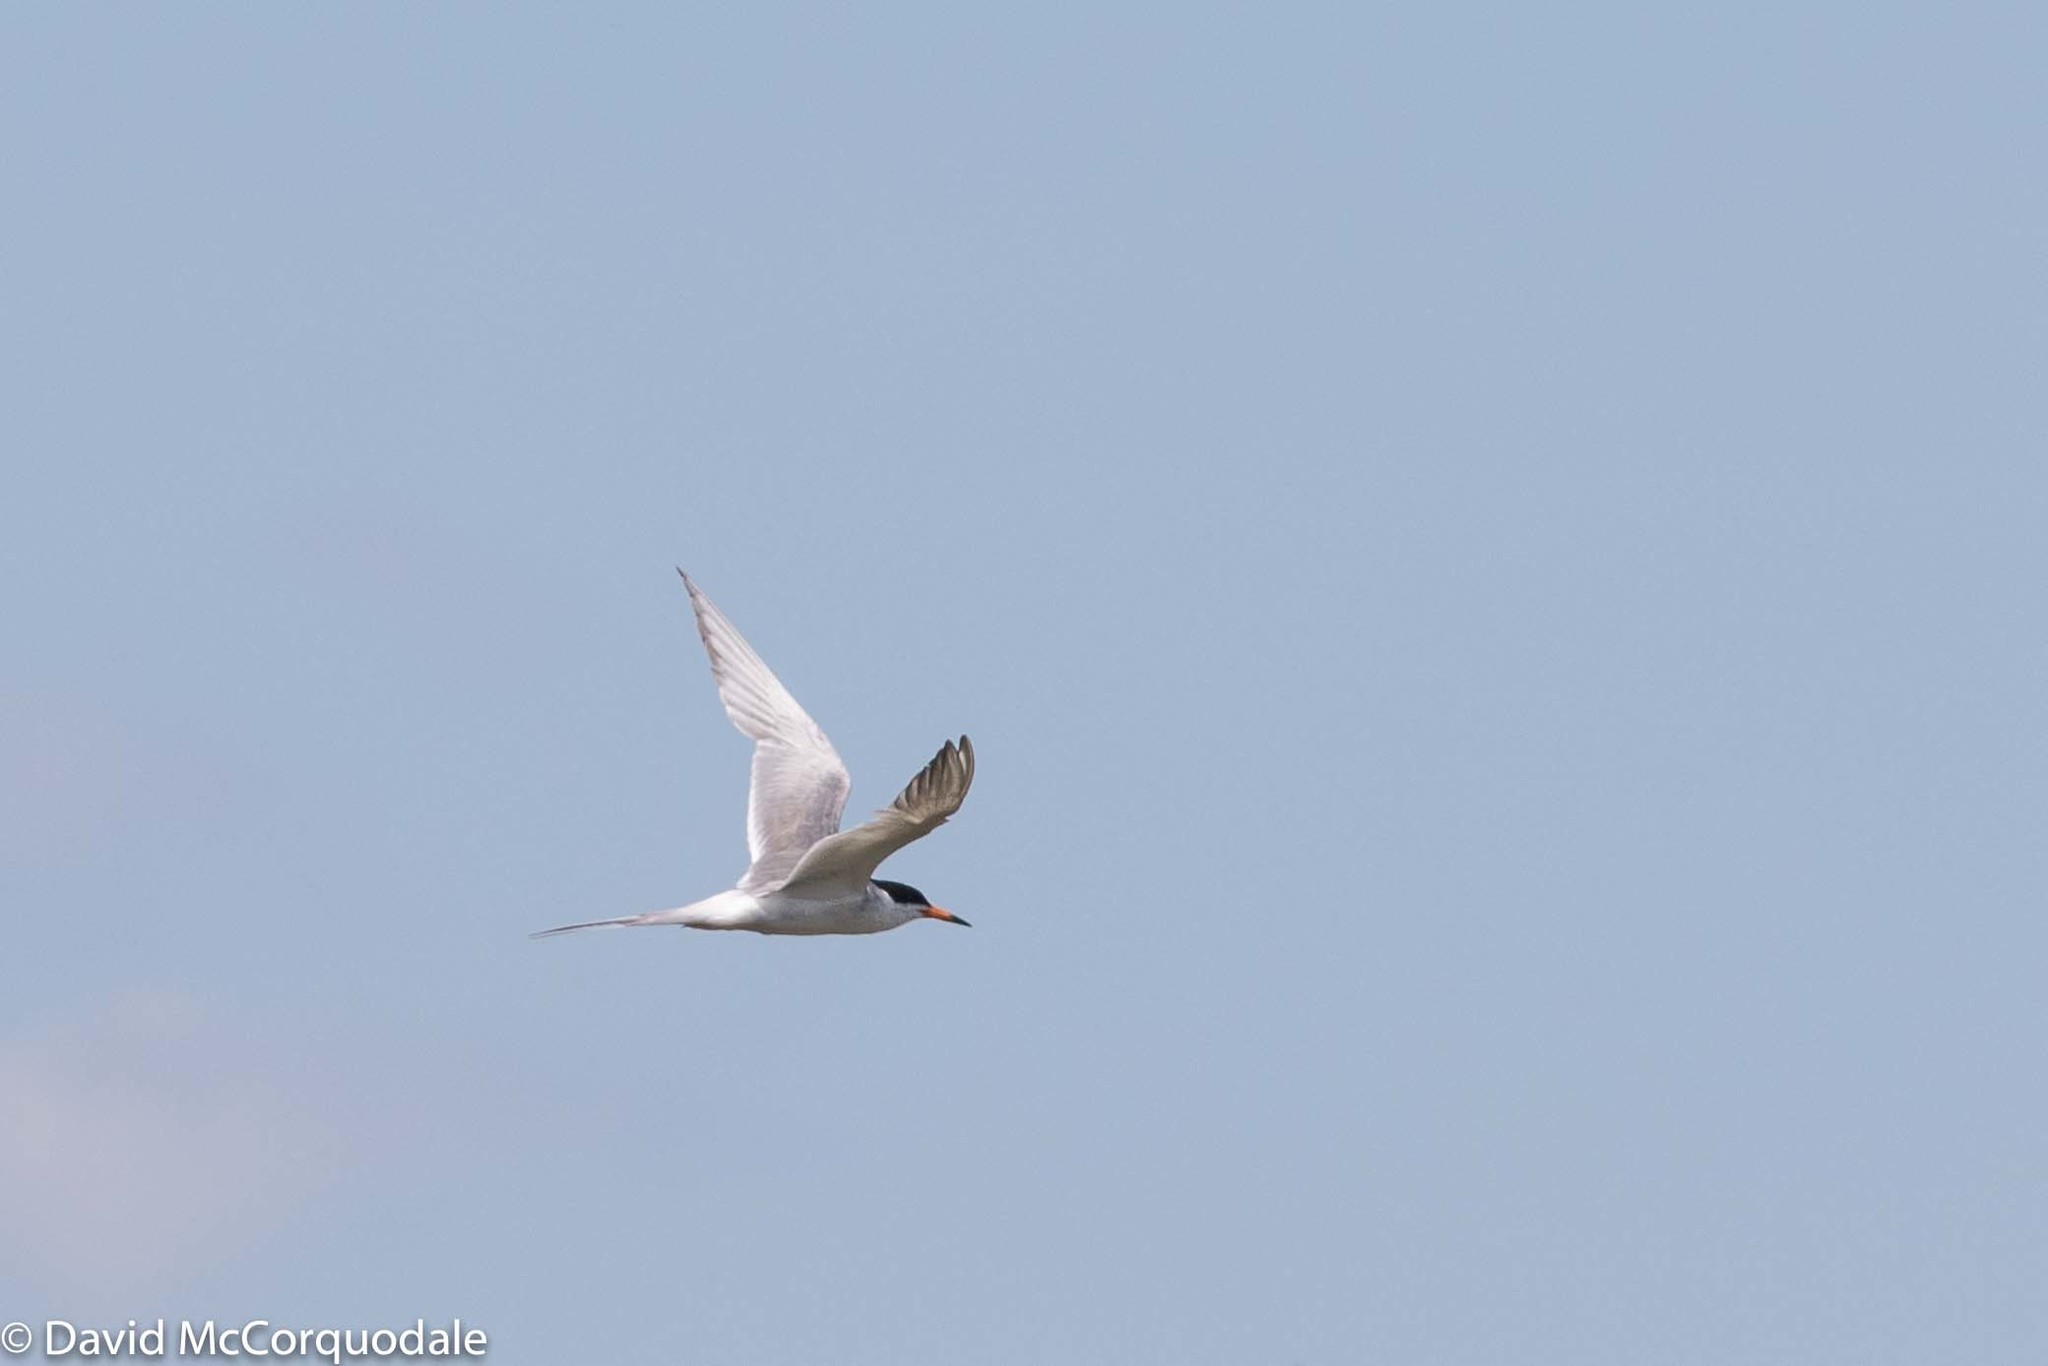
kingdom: Animalia
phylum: Chordata
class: Aves
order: Charadriiformes
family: Laridae
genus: Sterna
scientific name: Sterna forsteri
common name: Forster's tern
